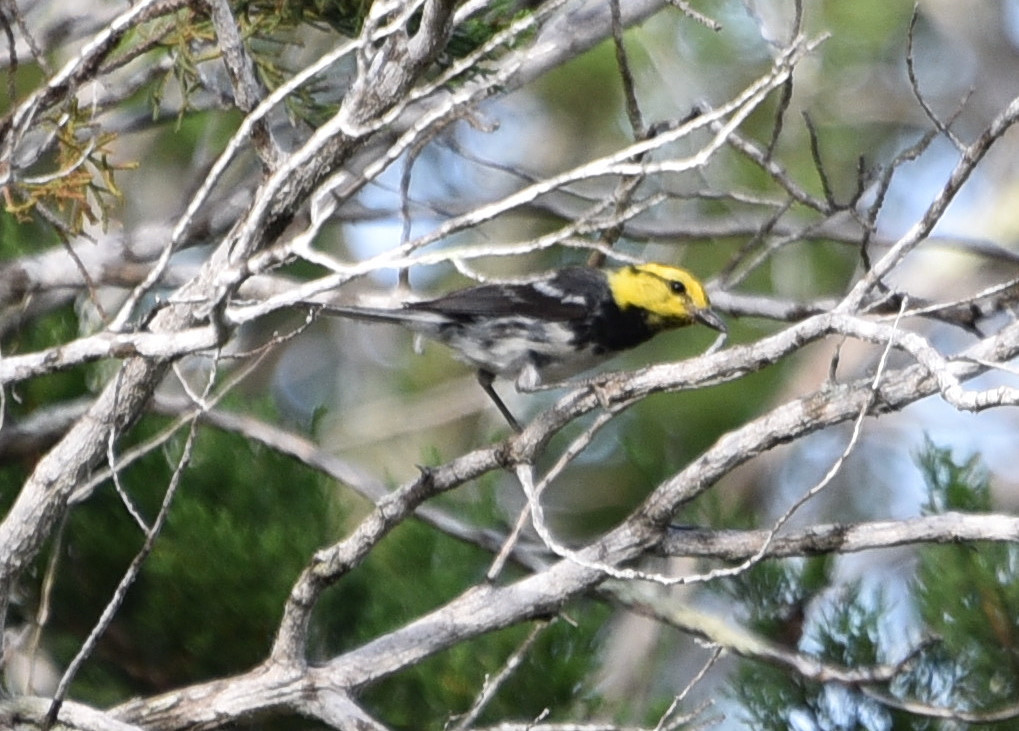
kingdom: Animalia
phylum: Chordata
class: Aves
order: Passeriformes
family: Parulidae
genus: Setophaga
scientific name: Setophaga chrysoparia
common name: Golden-cheeked warbler
